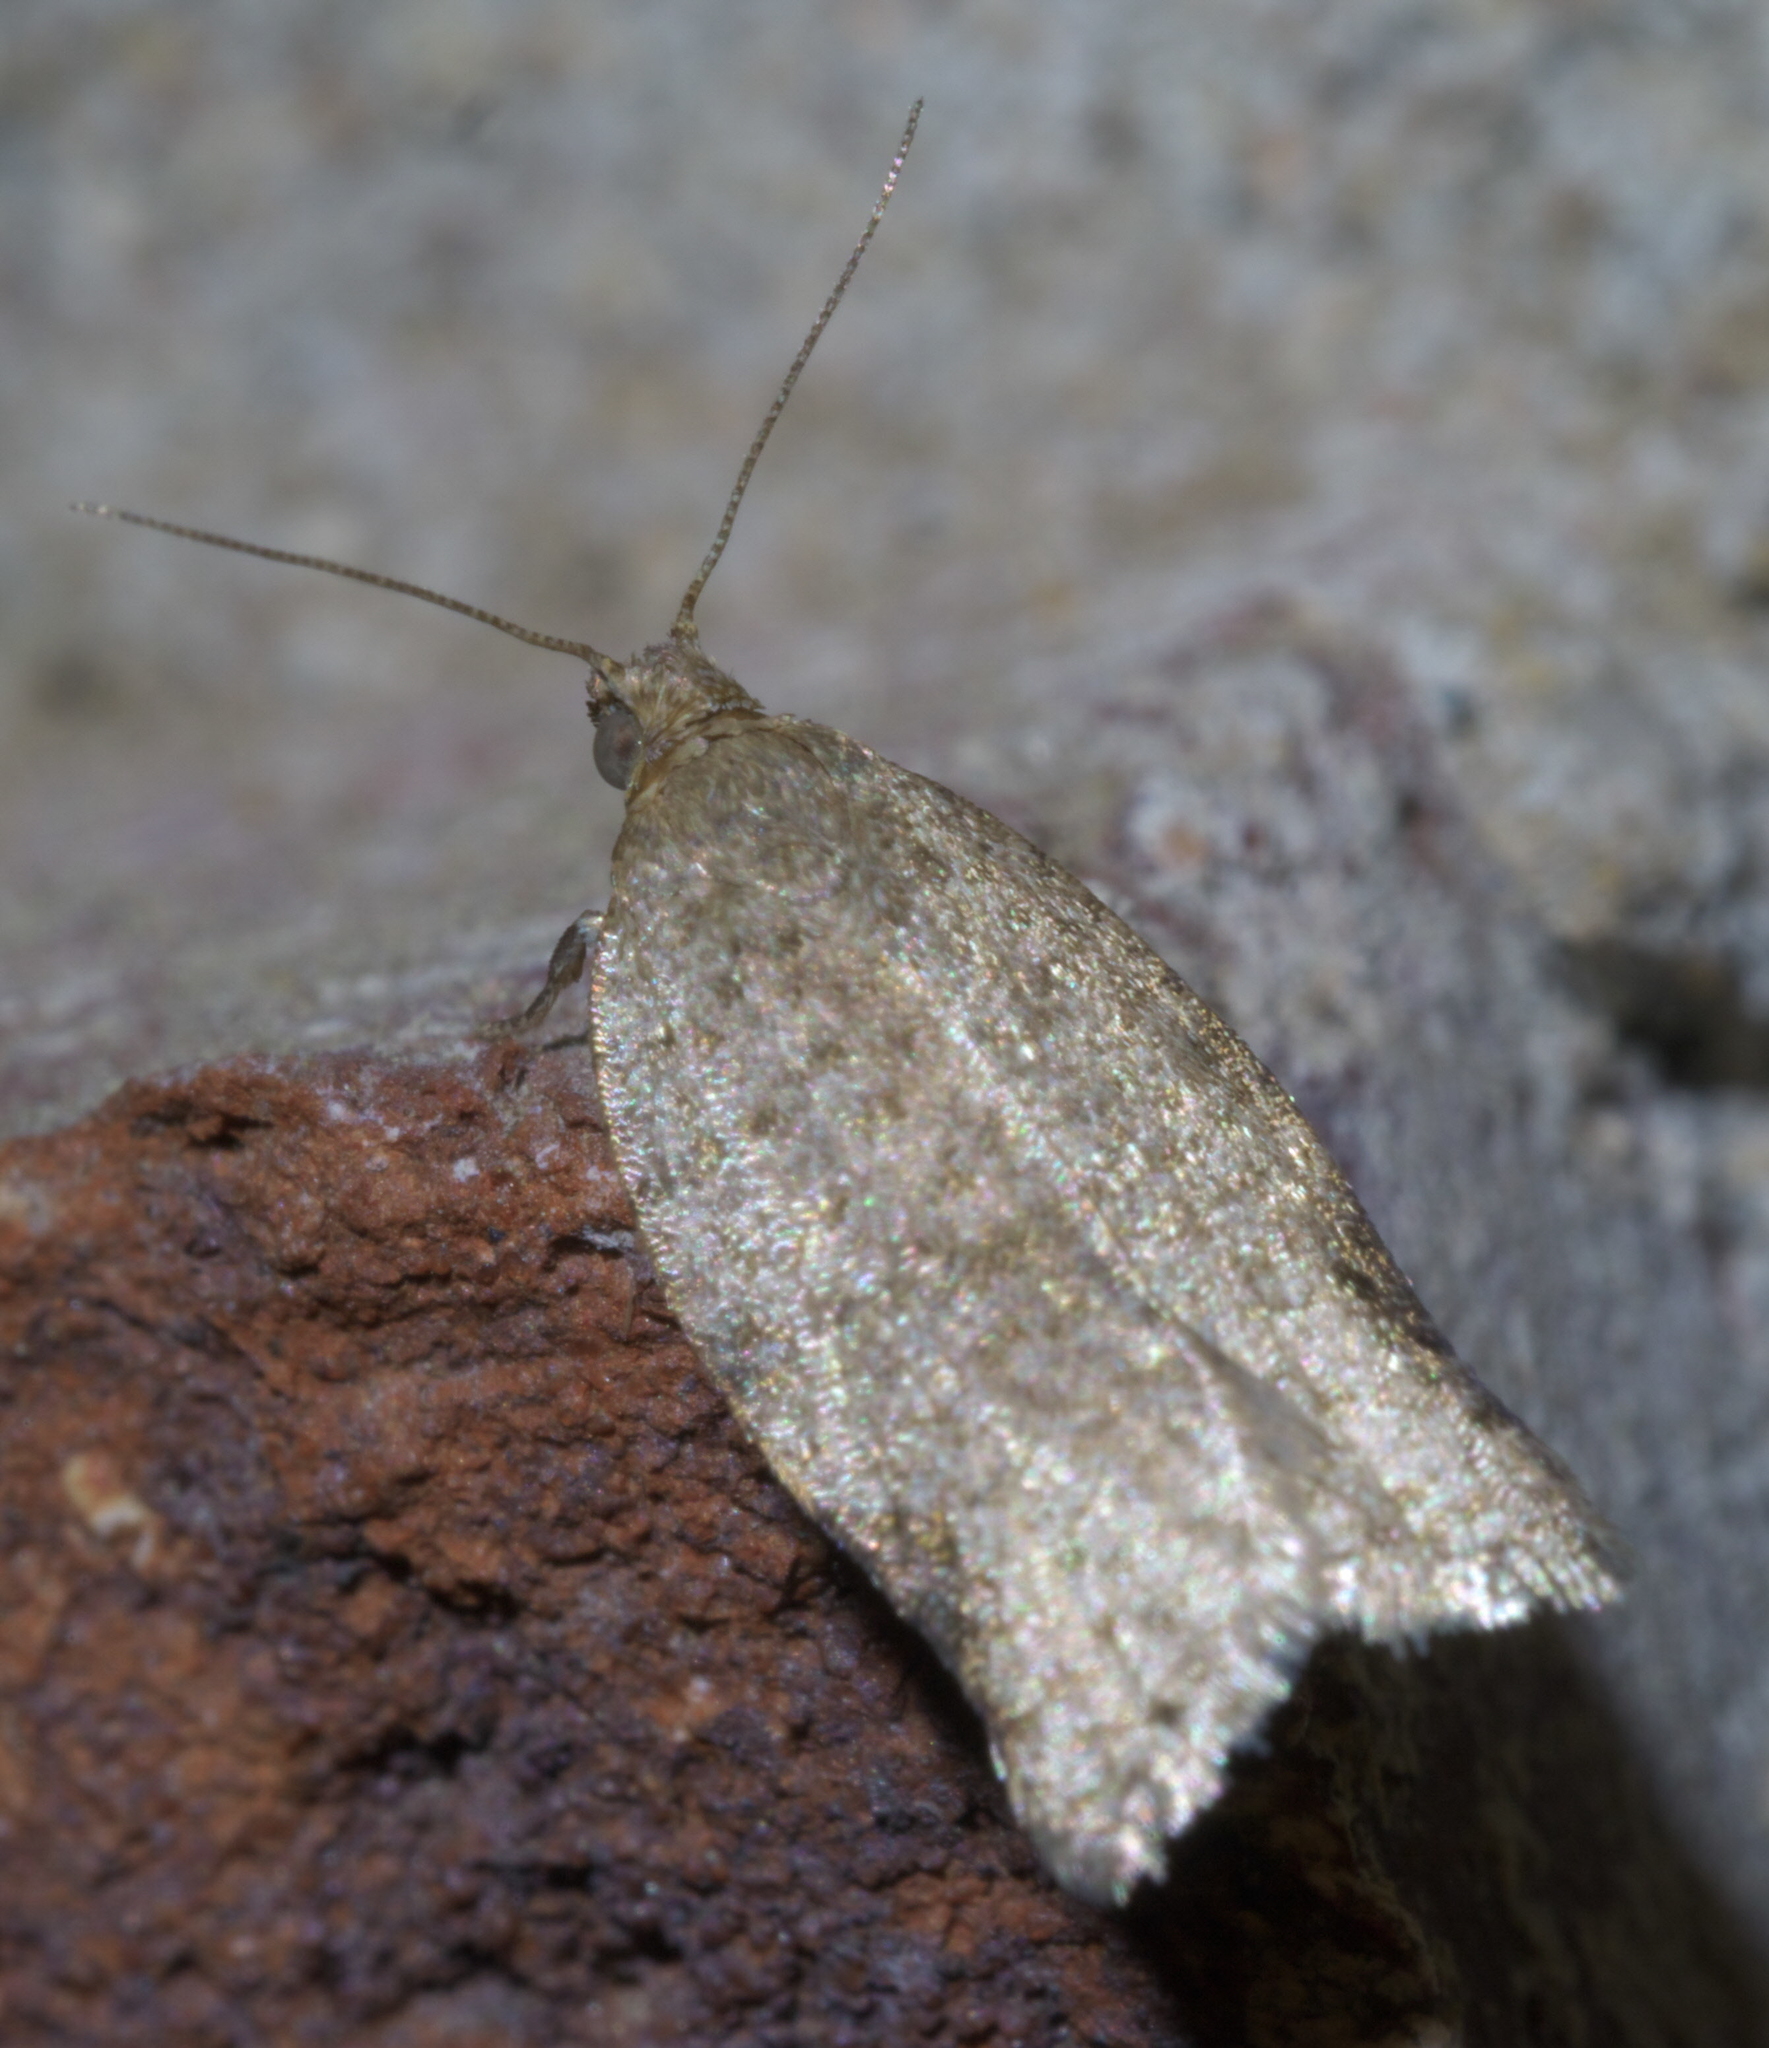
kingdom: Animalia
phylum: Arthropoda
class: Insecta
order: Lepidoptera
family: Tortricidae
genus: Clepsis
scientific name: Clepsis virescana
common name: Greenish apple moth
